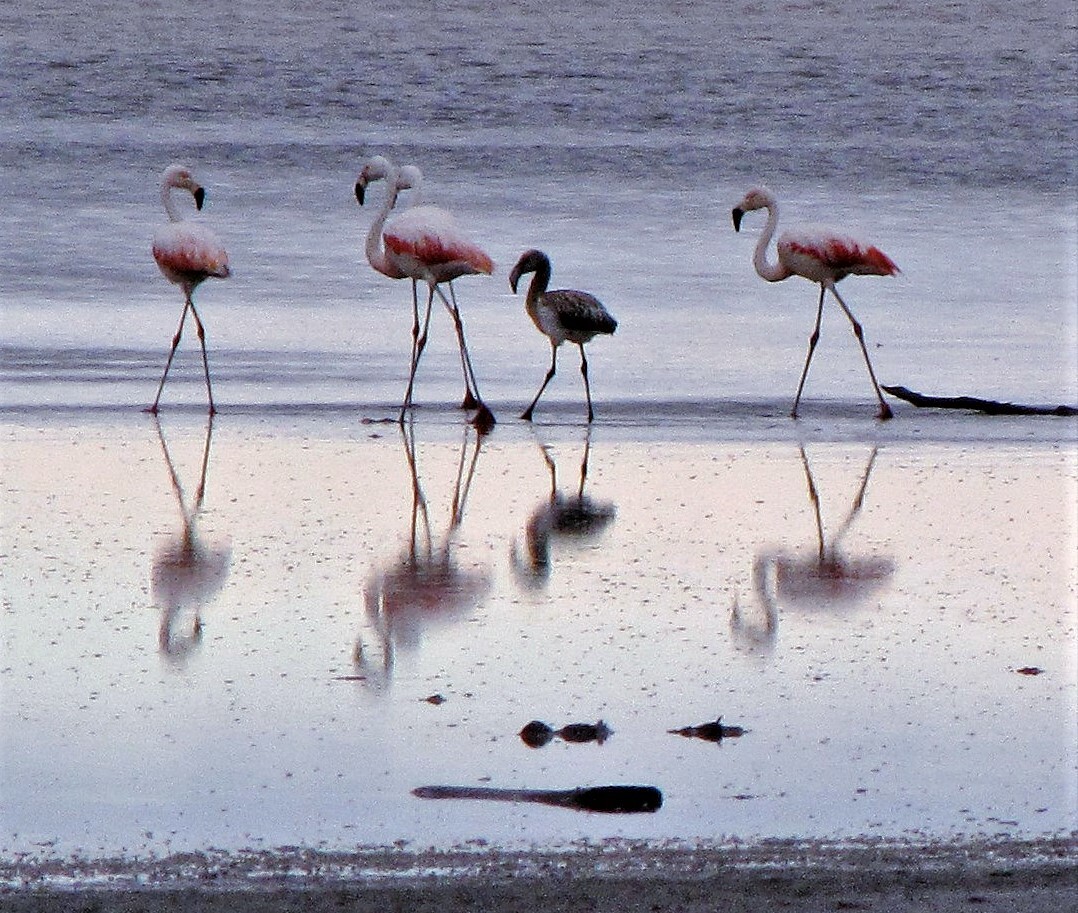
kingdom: Animalia
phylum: Chordata
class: Aves
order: Phoenicopteriformes
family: Phoenicopteridae
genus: Phoenicopterus
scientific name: Phoenicopterus chilensis
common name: Chilean flamingo
